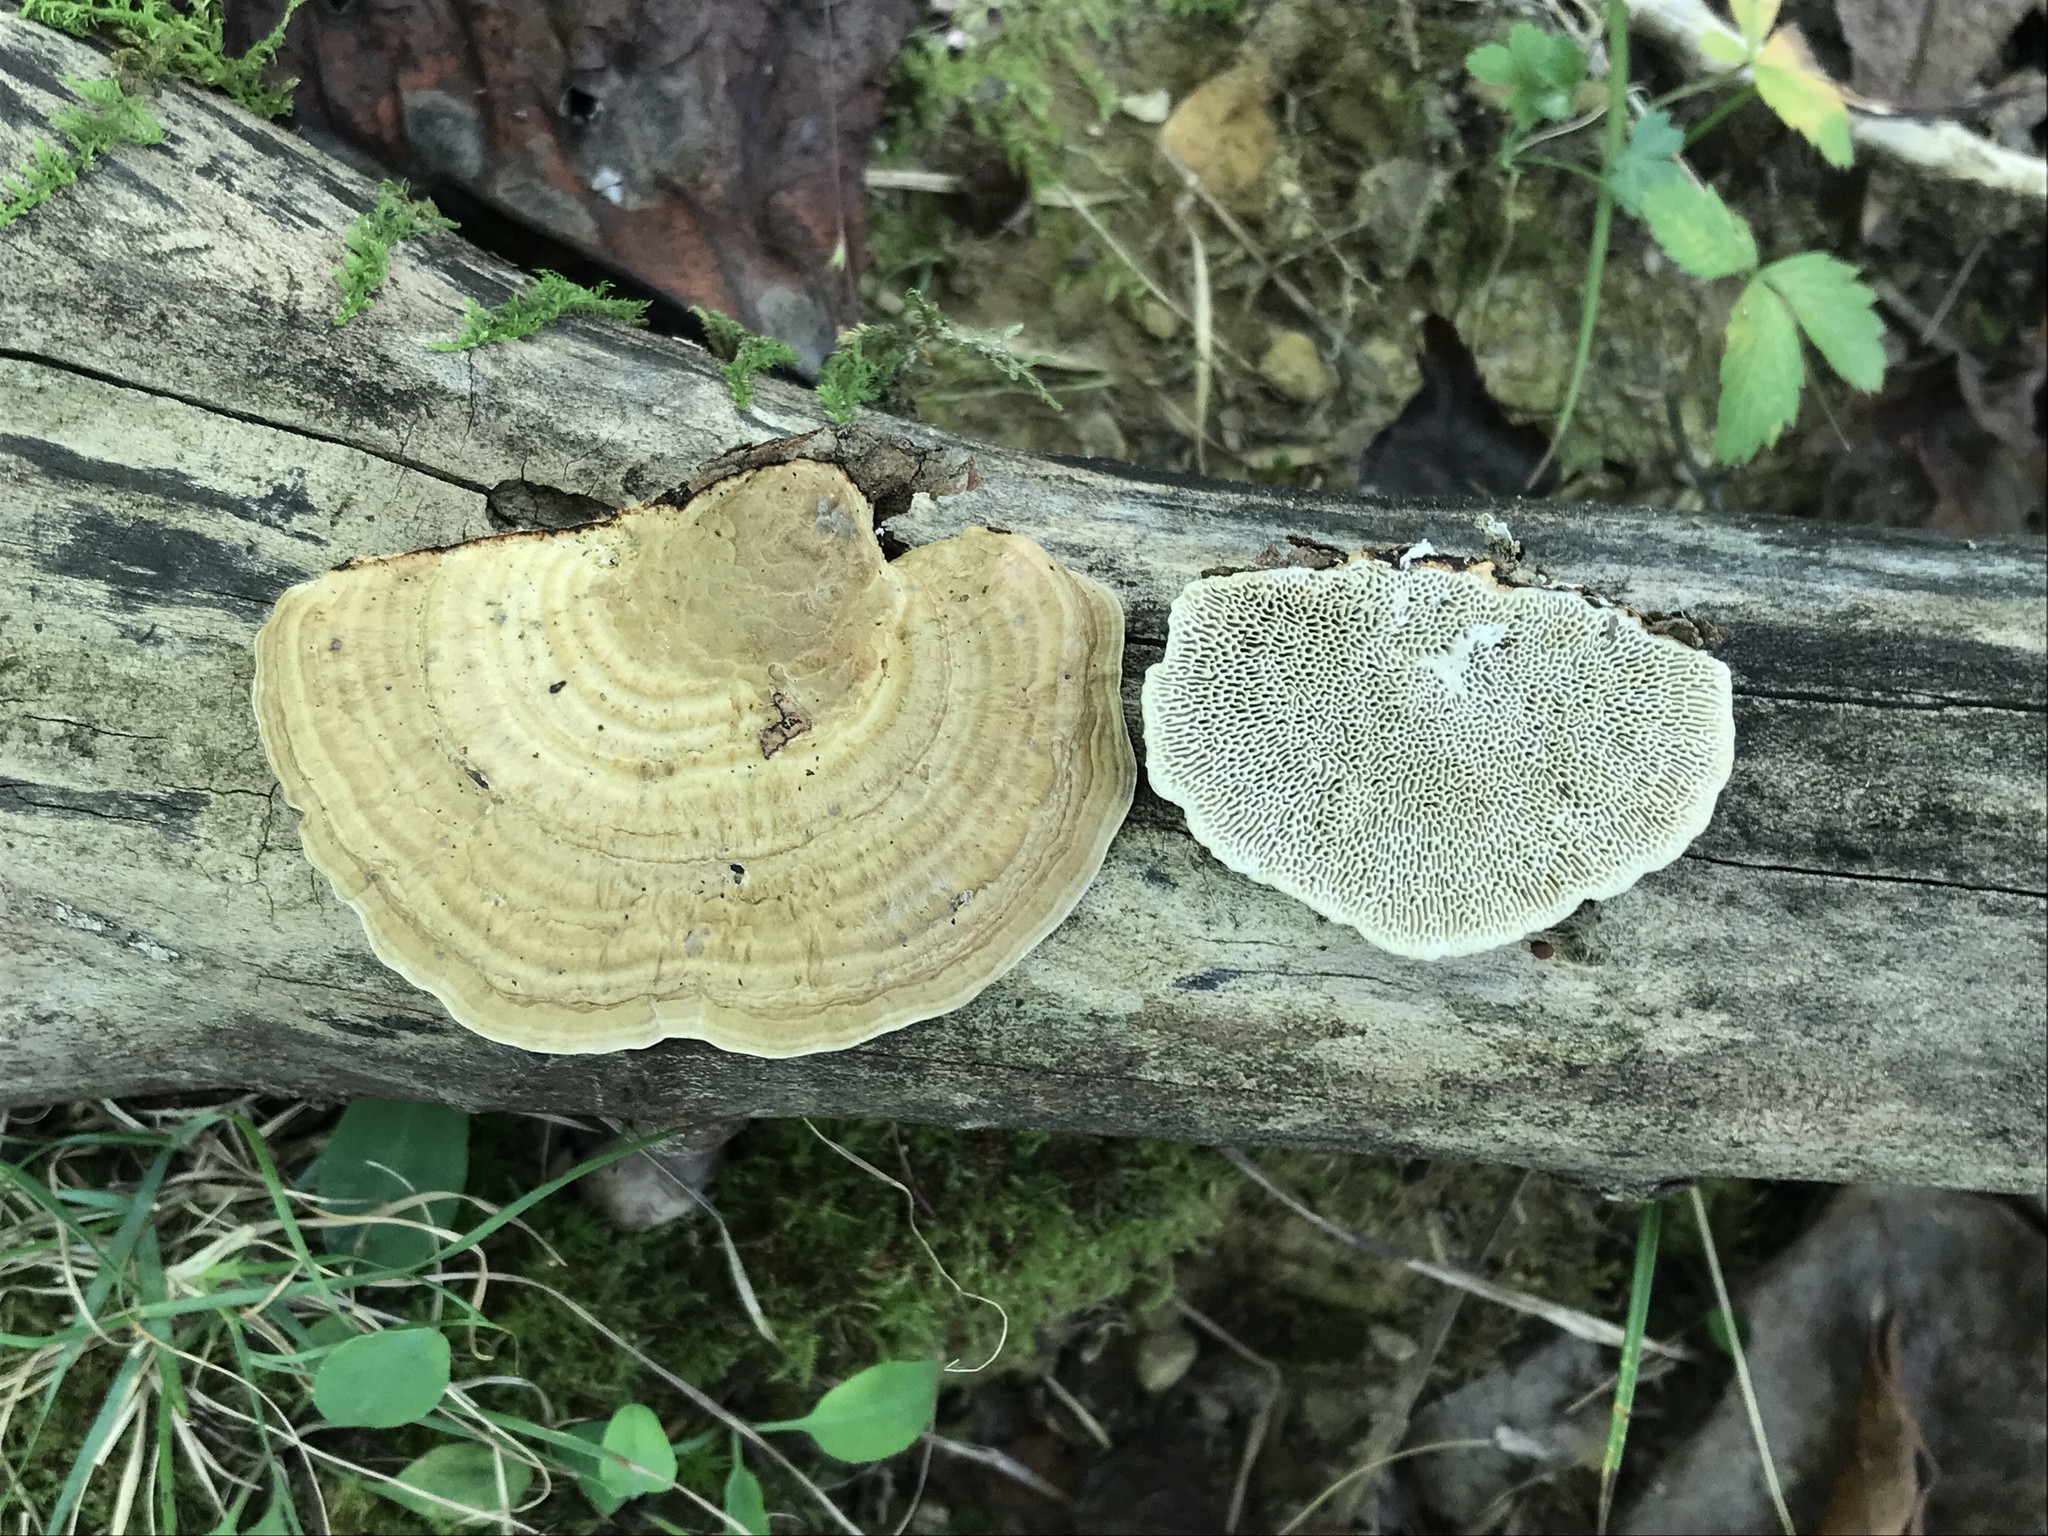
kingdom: Fungi
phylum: Basidiomycota
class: Agaricomycetes
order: Polyporales
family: Polyporaceae
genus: Trametes
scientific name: Trametes lactinea
